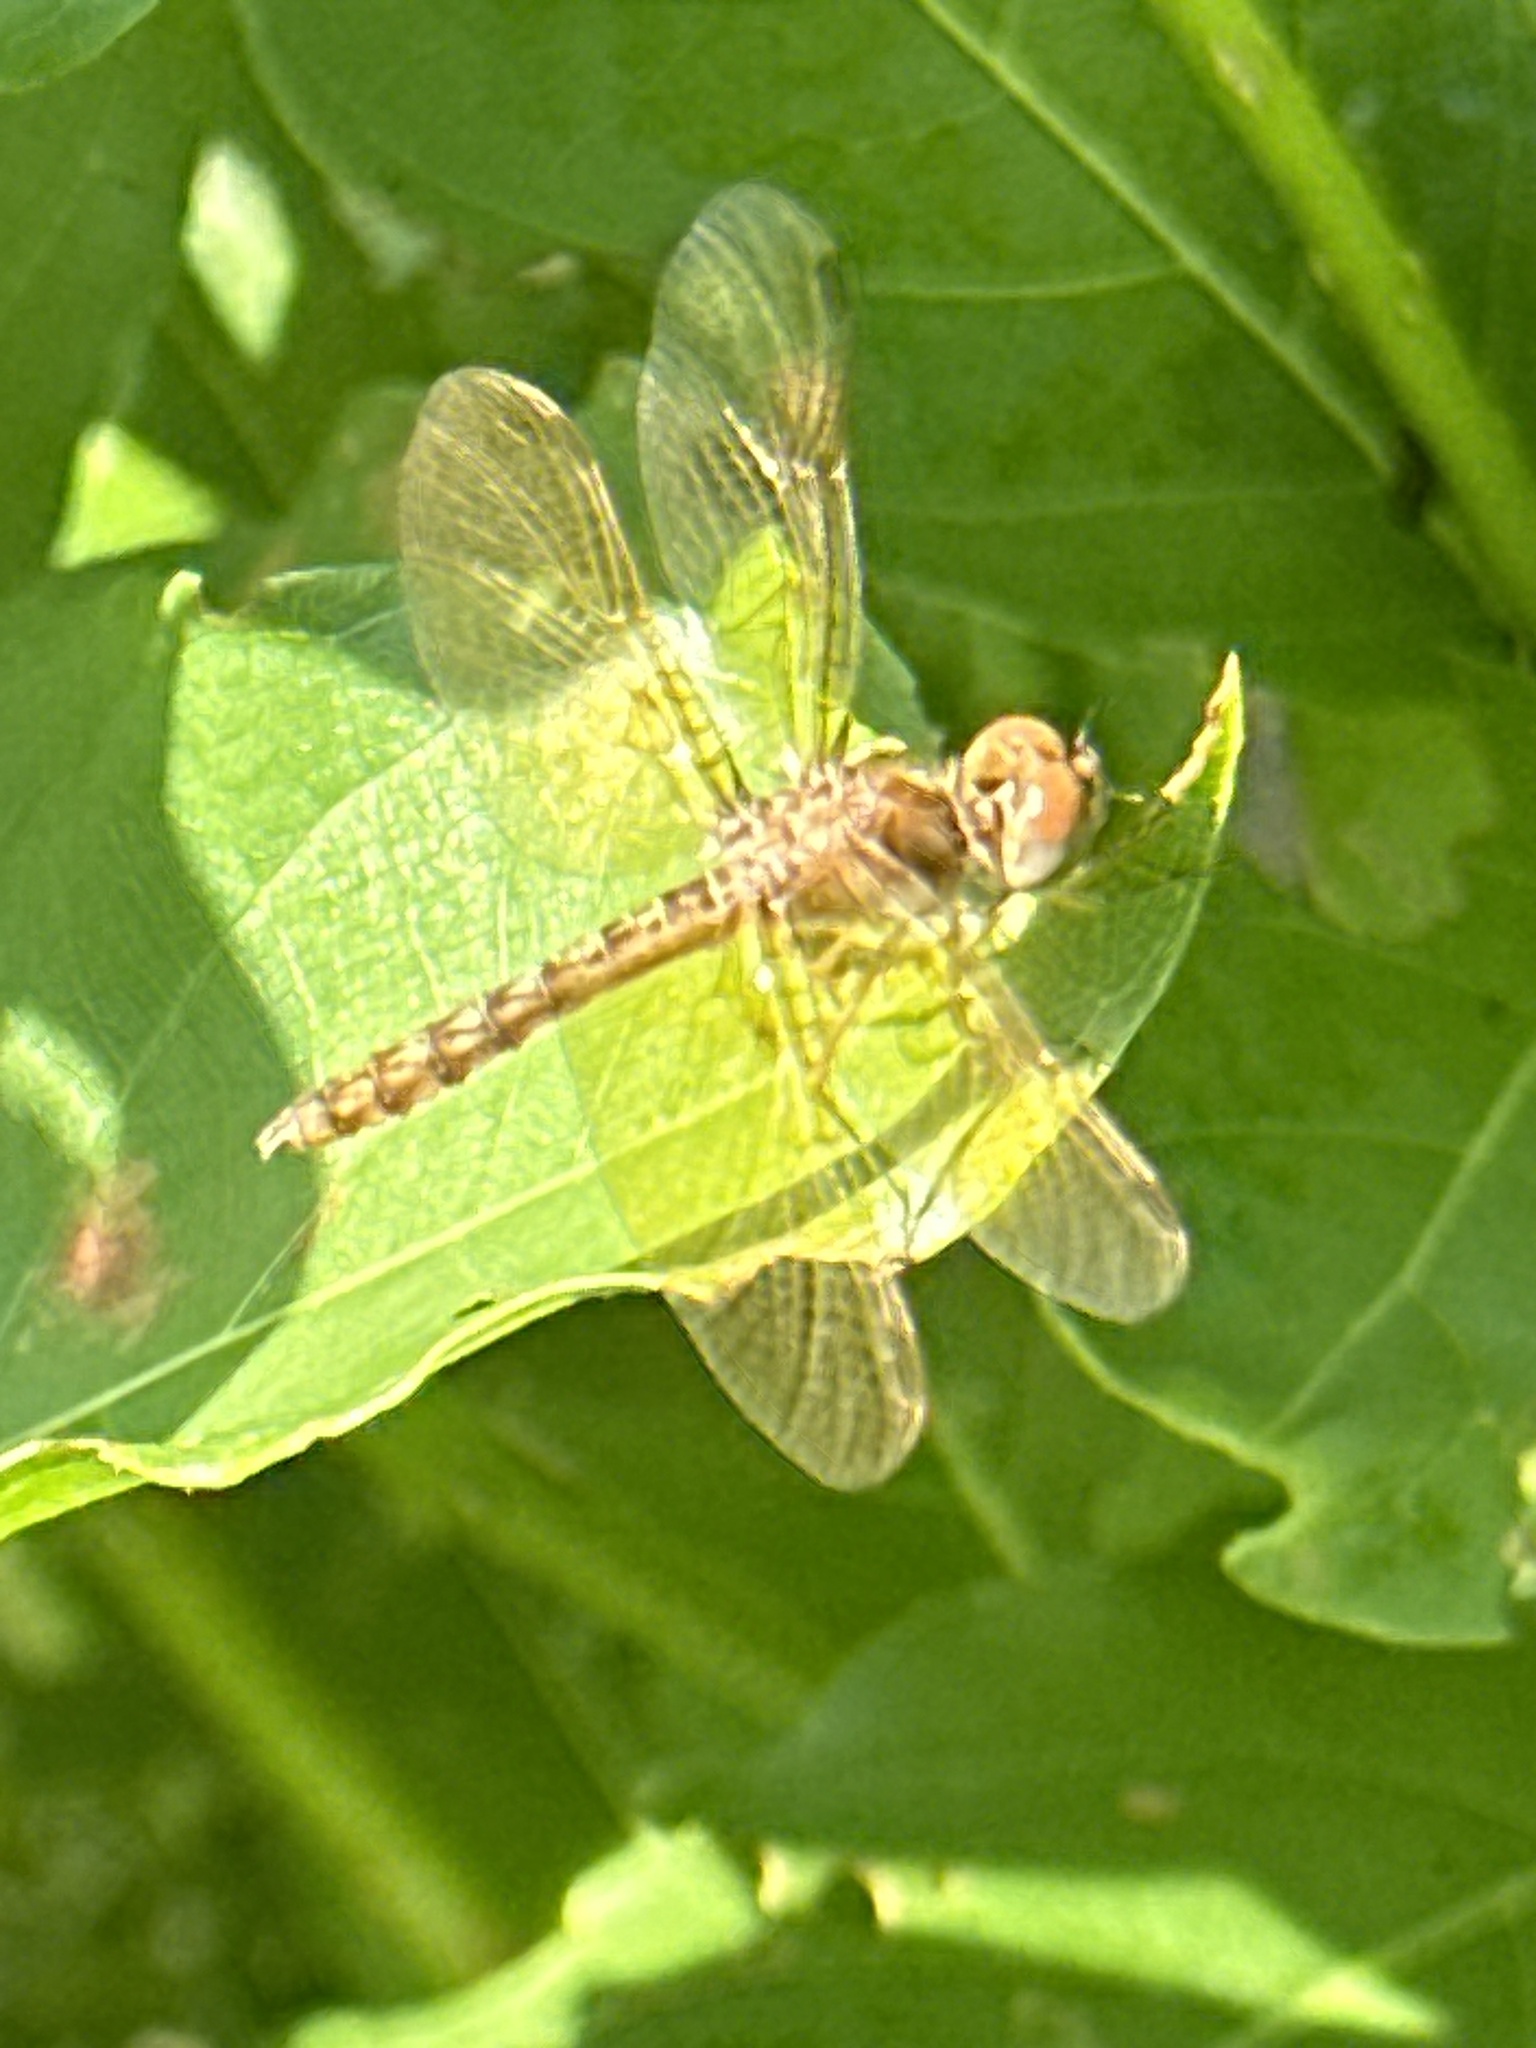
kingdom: Animalia
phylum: Arthropoda
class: Insecta
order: Odonata
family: Libellulidae
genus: Perithemis
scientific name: Perithemis tenera
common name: Eastern amberwing
